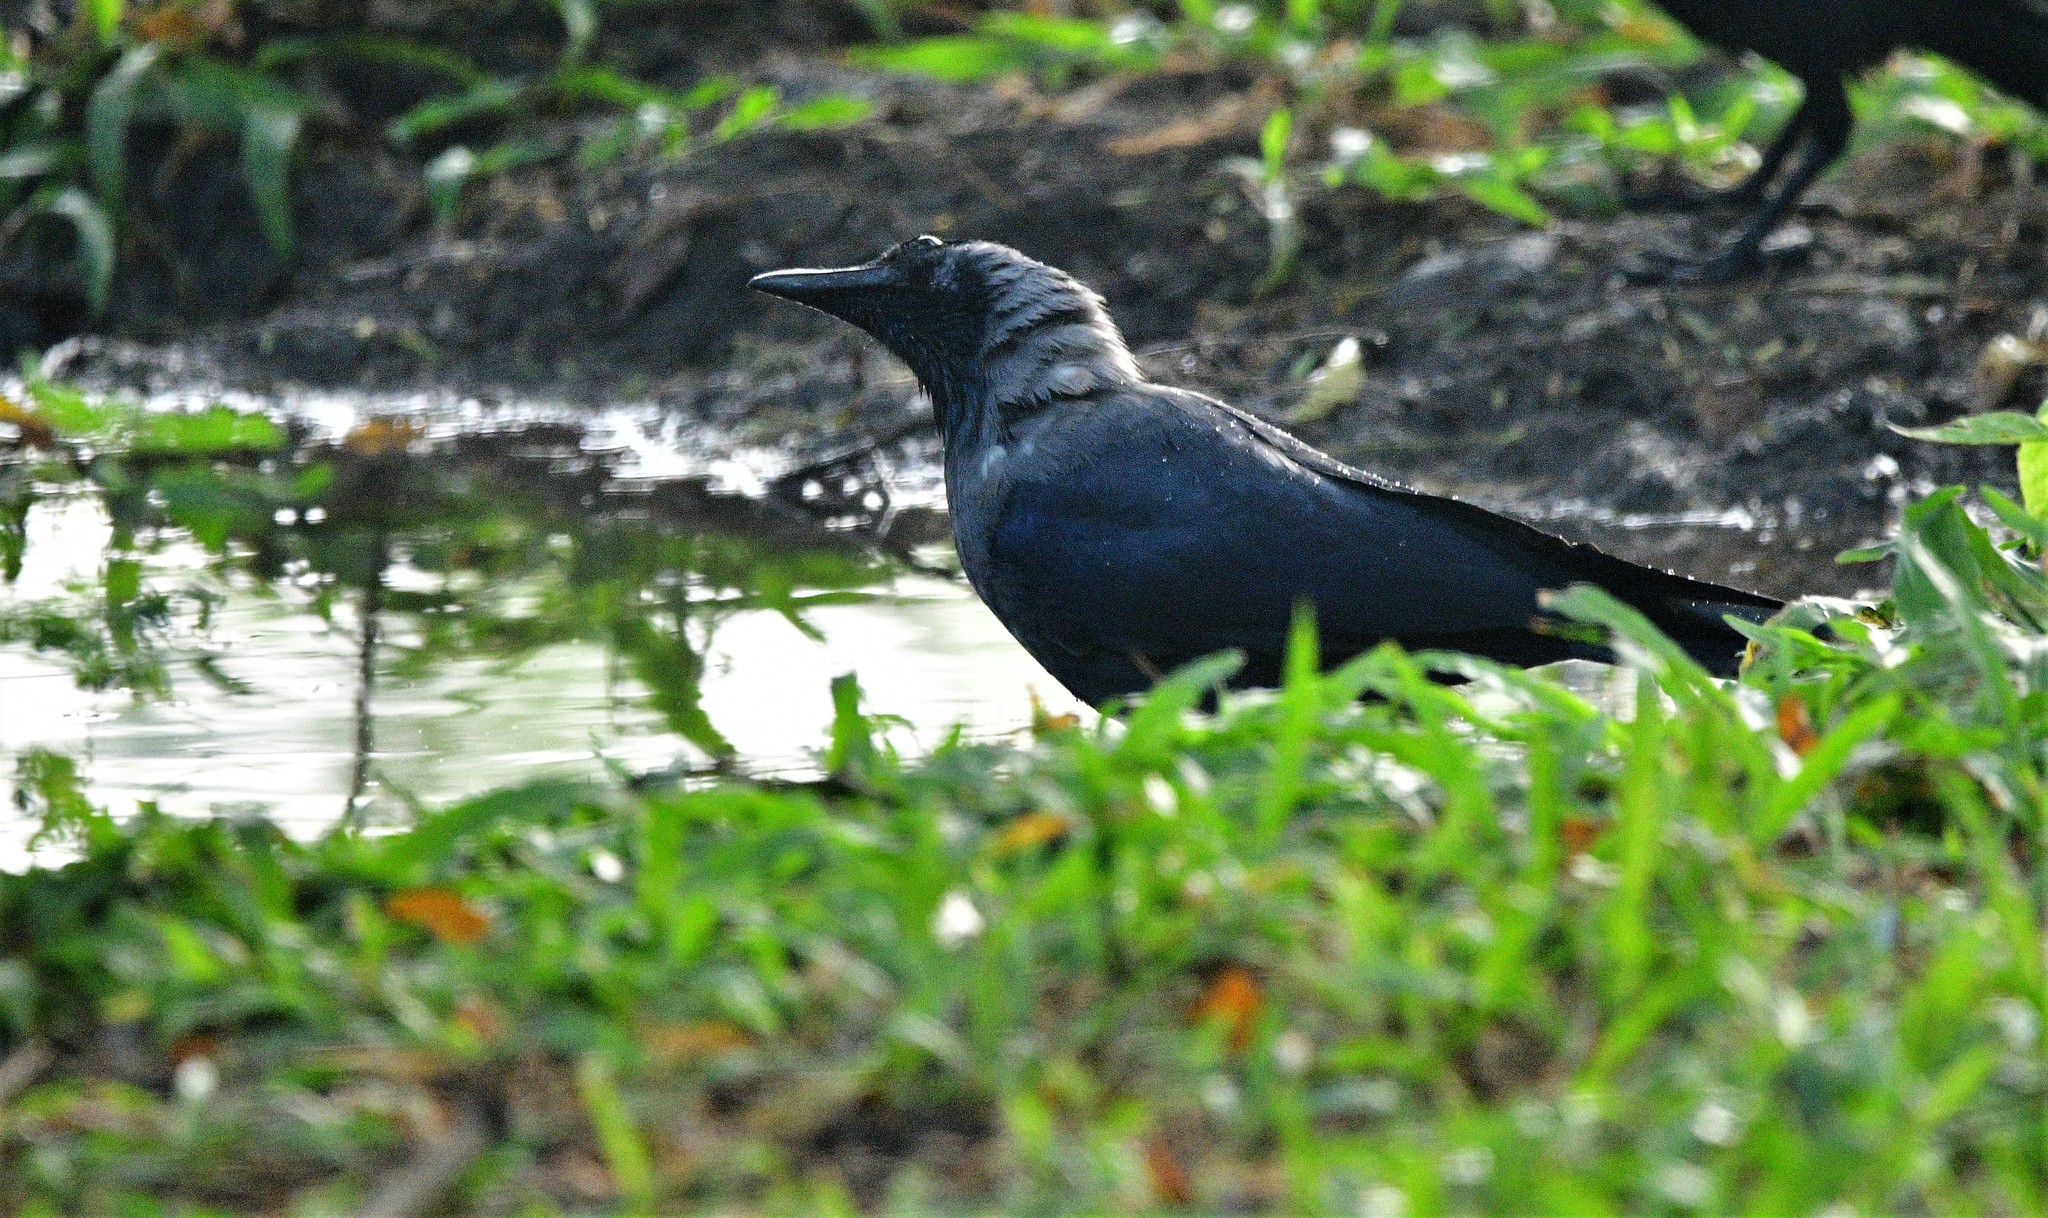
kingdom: Animalia
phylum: Chordata
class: Aves
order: Passeriformes
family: Corvidae
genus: Corvus
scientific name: Corvus splendens
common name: House crow
